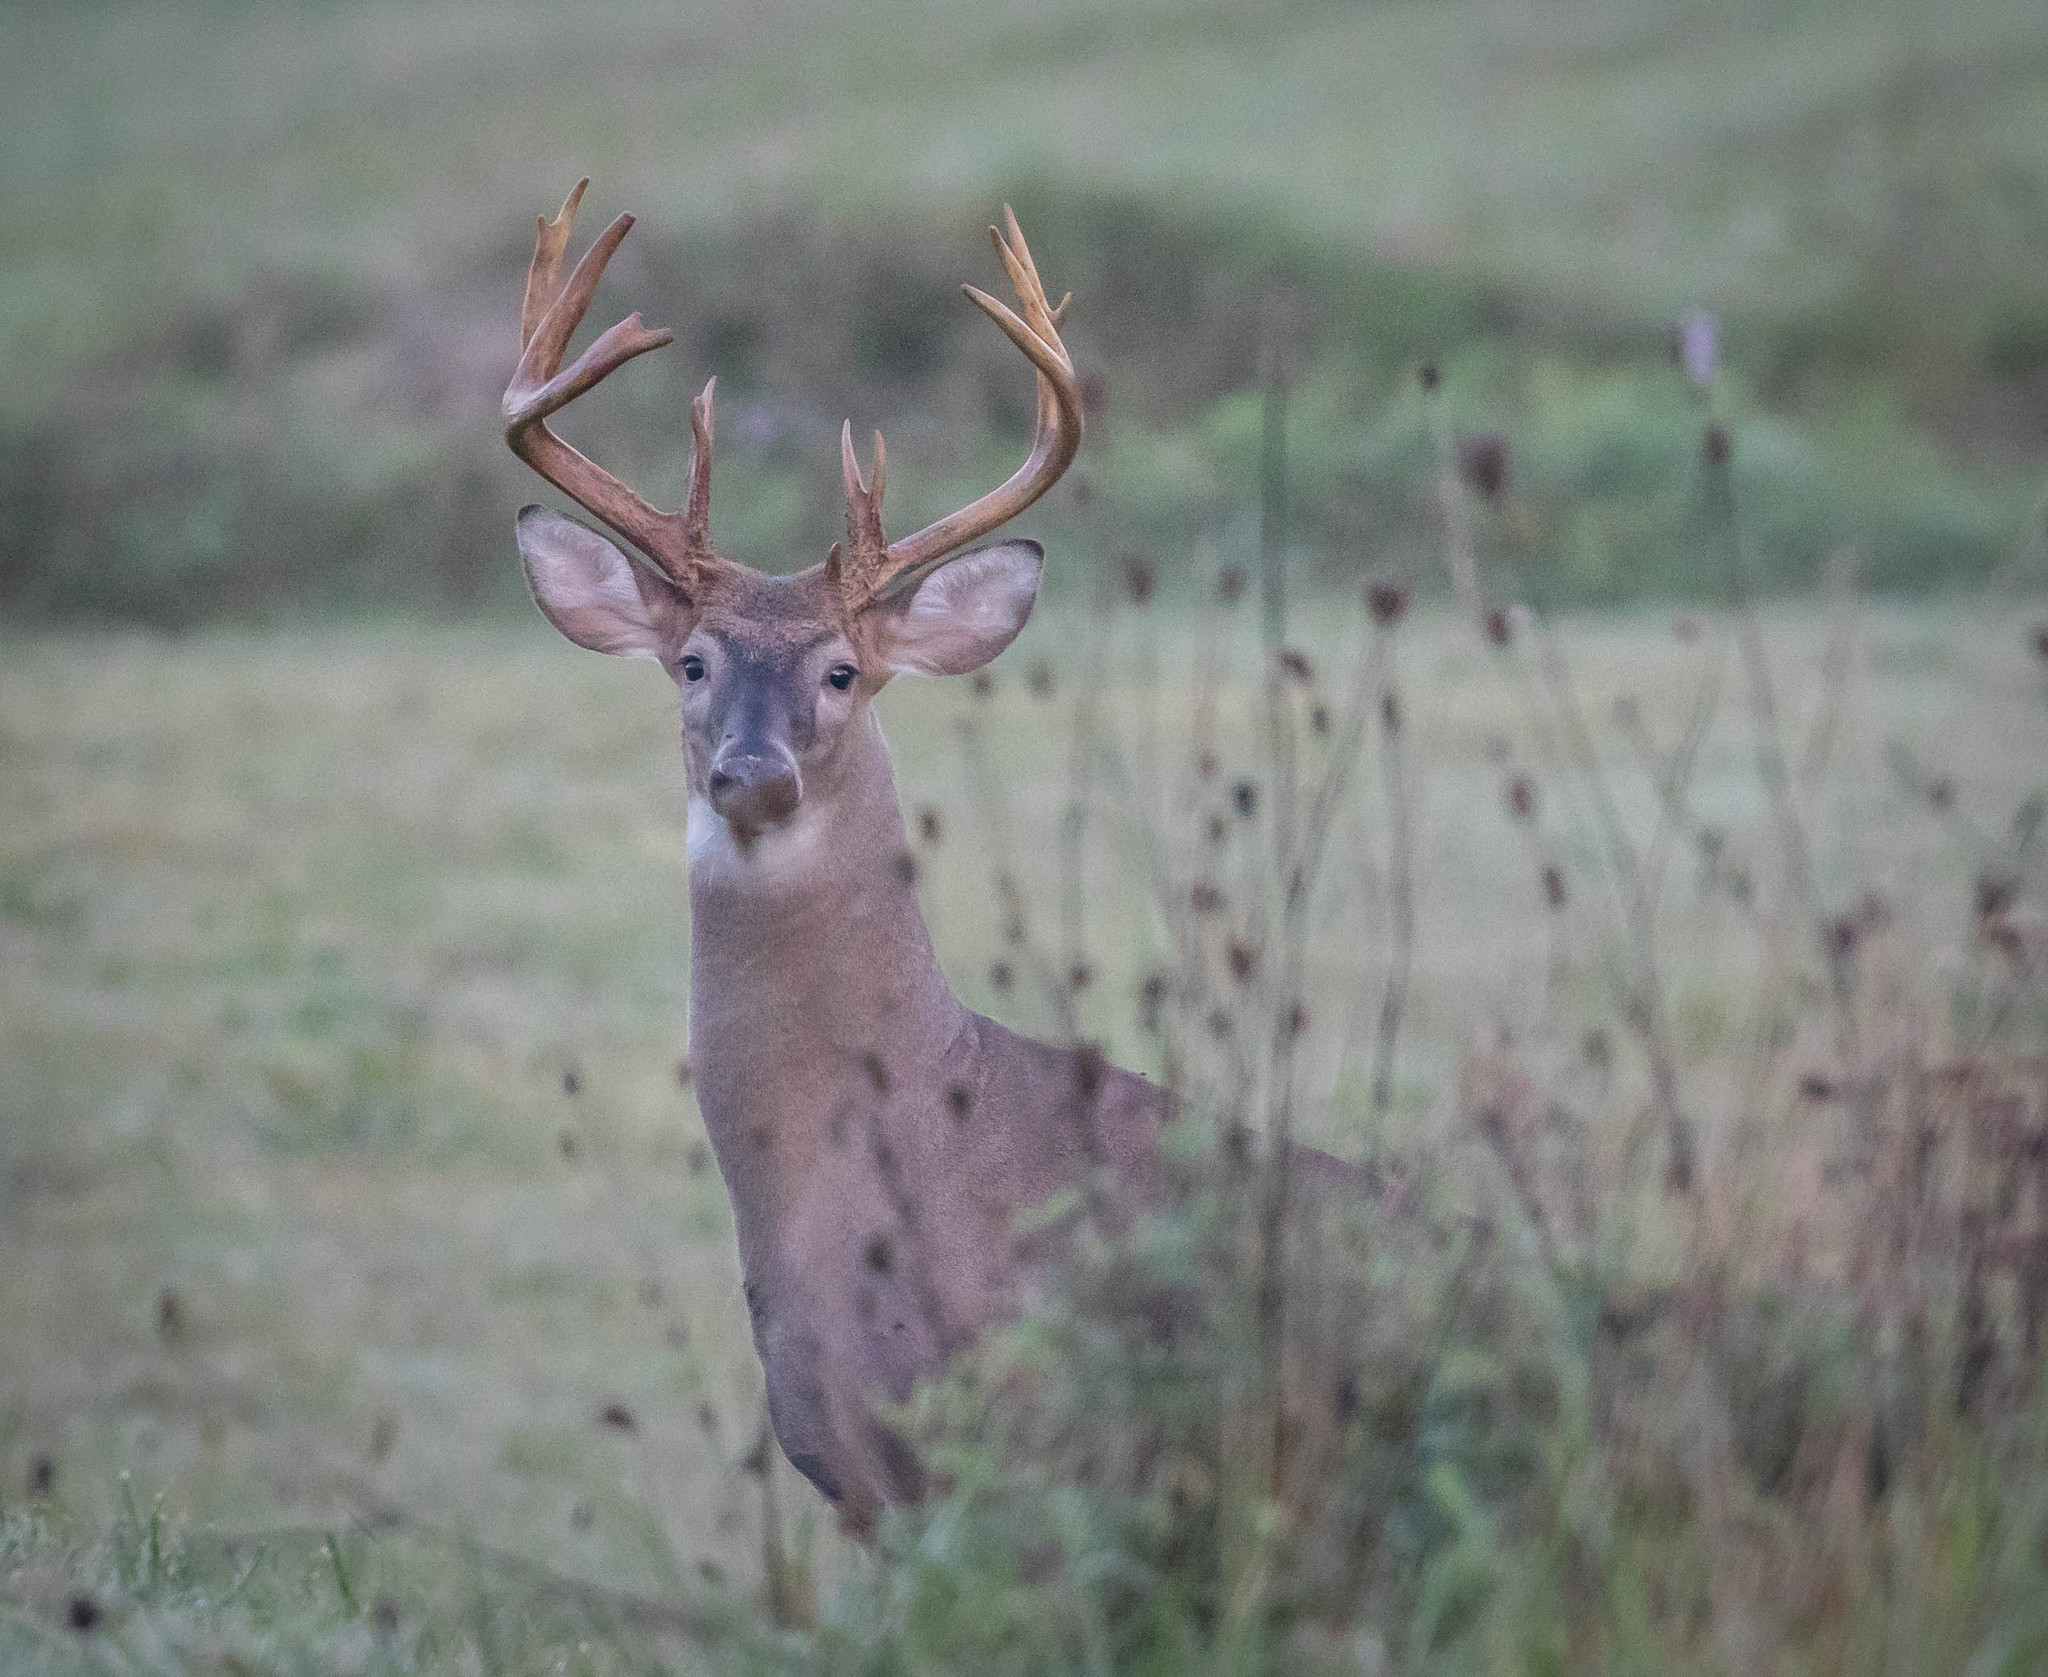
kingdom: Animalia
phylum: Chordata
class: Mammalia
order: Artiodactyla
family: Cervidae
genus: Odocoileus
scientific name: Odocoileus virginianus
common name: White-tailed deer
